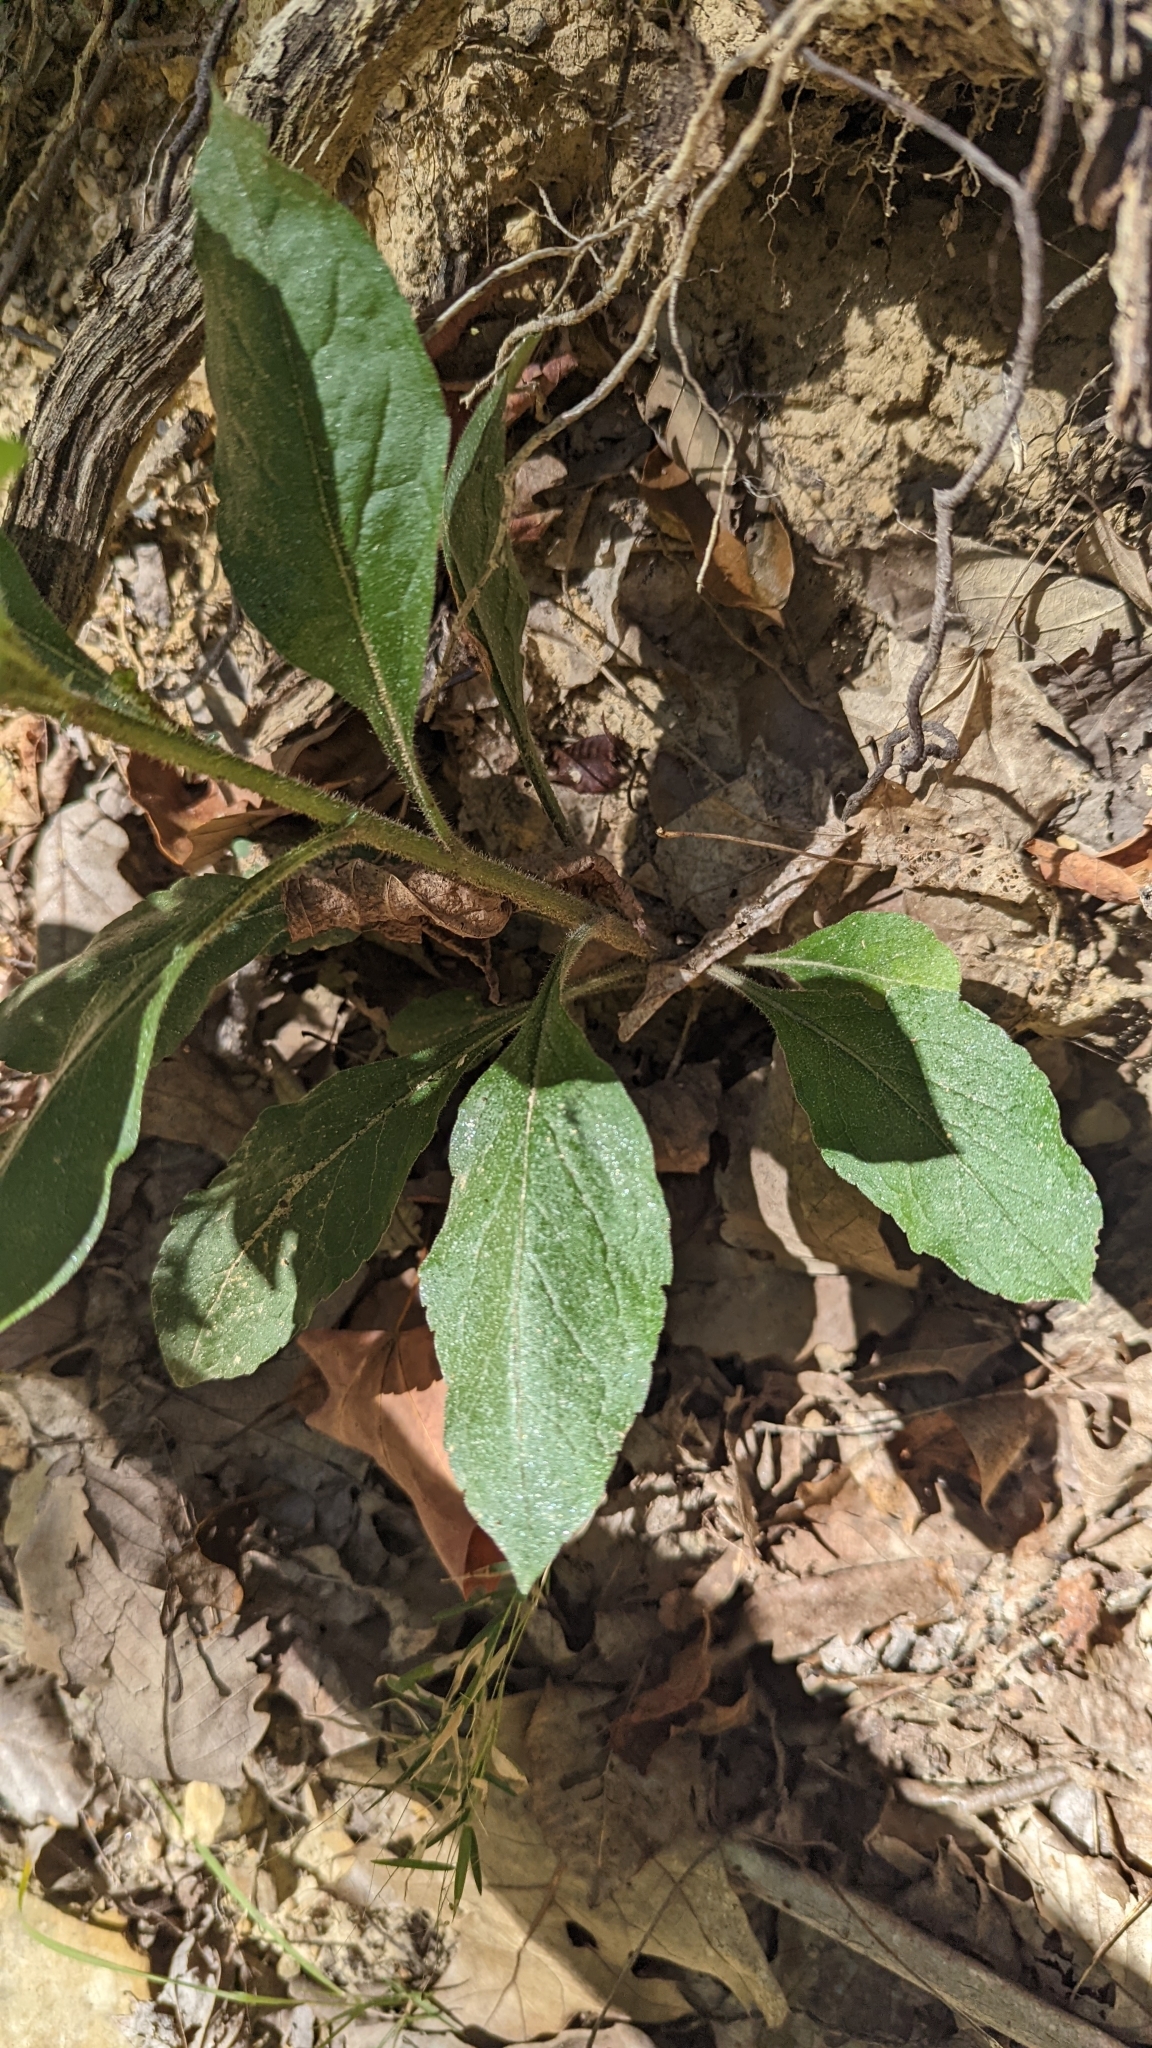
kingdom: Plantae
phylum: Tracheophyta
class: Magnoliopsida
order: Asterales
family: Asteraceae
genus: Solidago
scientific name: Solidago hispida
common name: Hairy goldenrod
